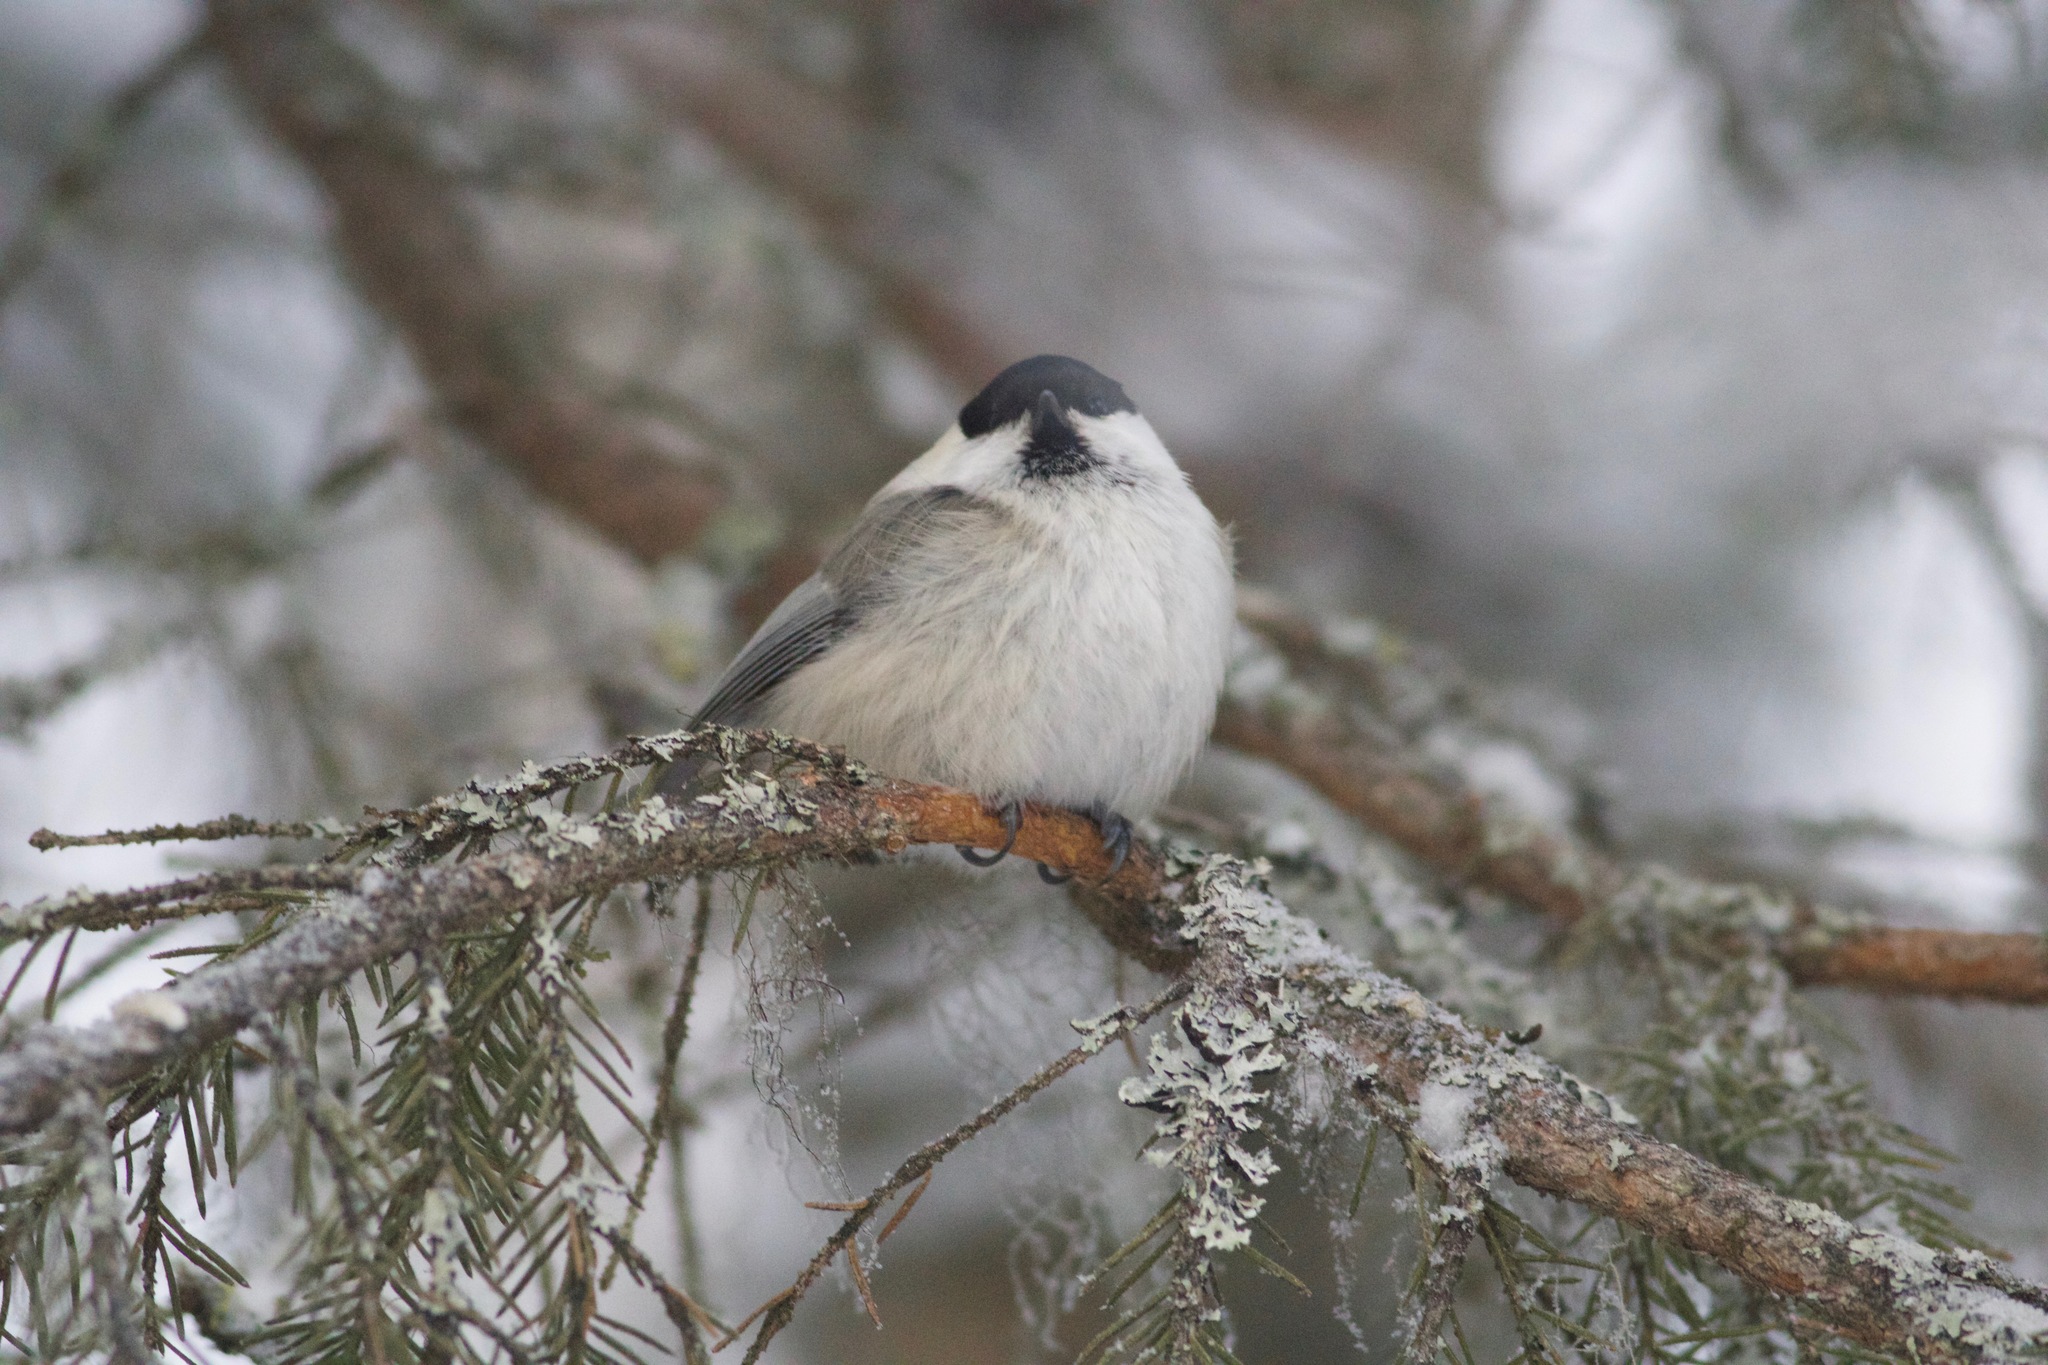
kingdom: Animalia
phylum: Chordata
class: Aves
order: Passeriformes
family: Paridae
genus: Poecile
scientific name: Poecile montanus
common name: Willow tit
